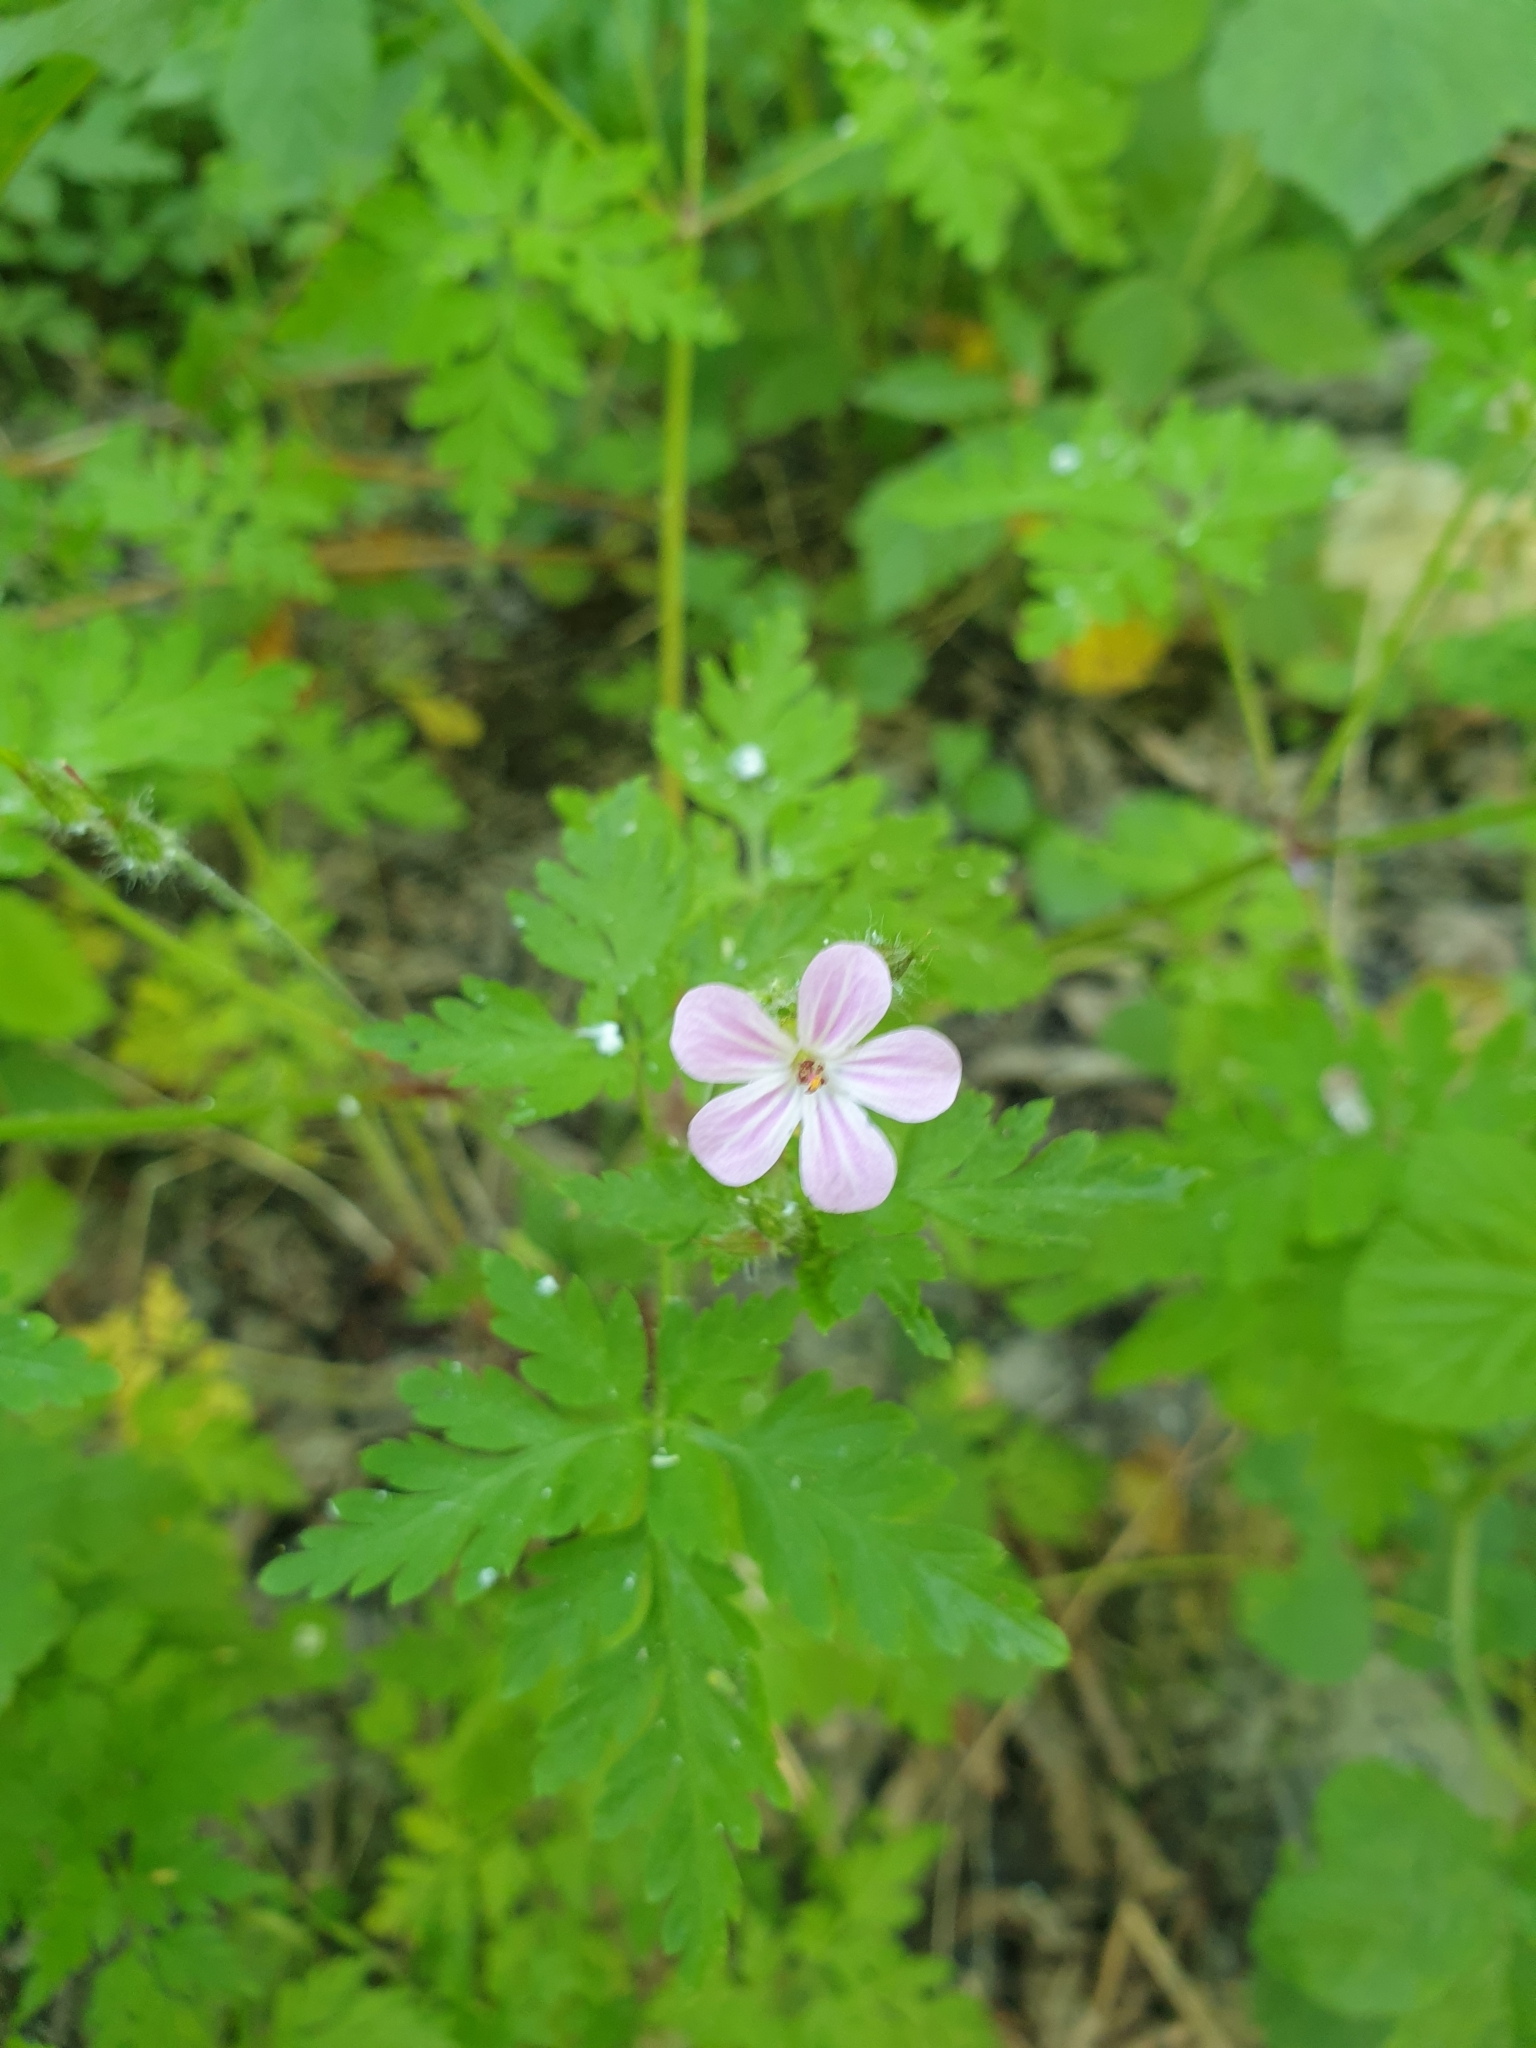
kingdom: Plantae
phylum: Tracheophyta
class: Magnoliopsida
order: Geraniales
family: Geraniaceae
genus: Geranium
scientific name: Geranium robertianum
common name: Herb-robert
